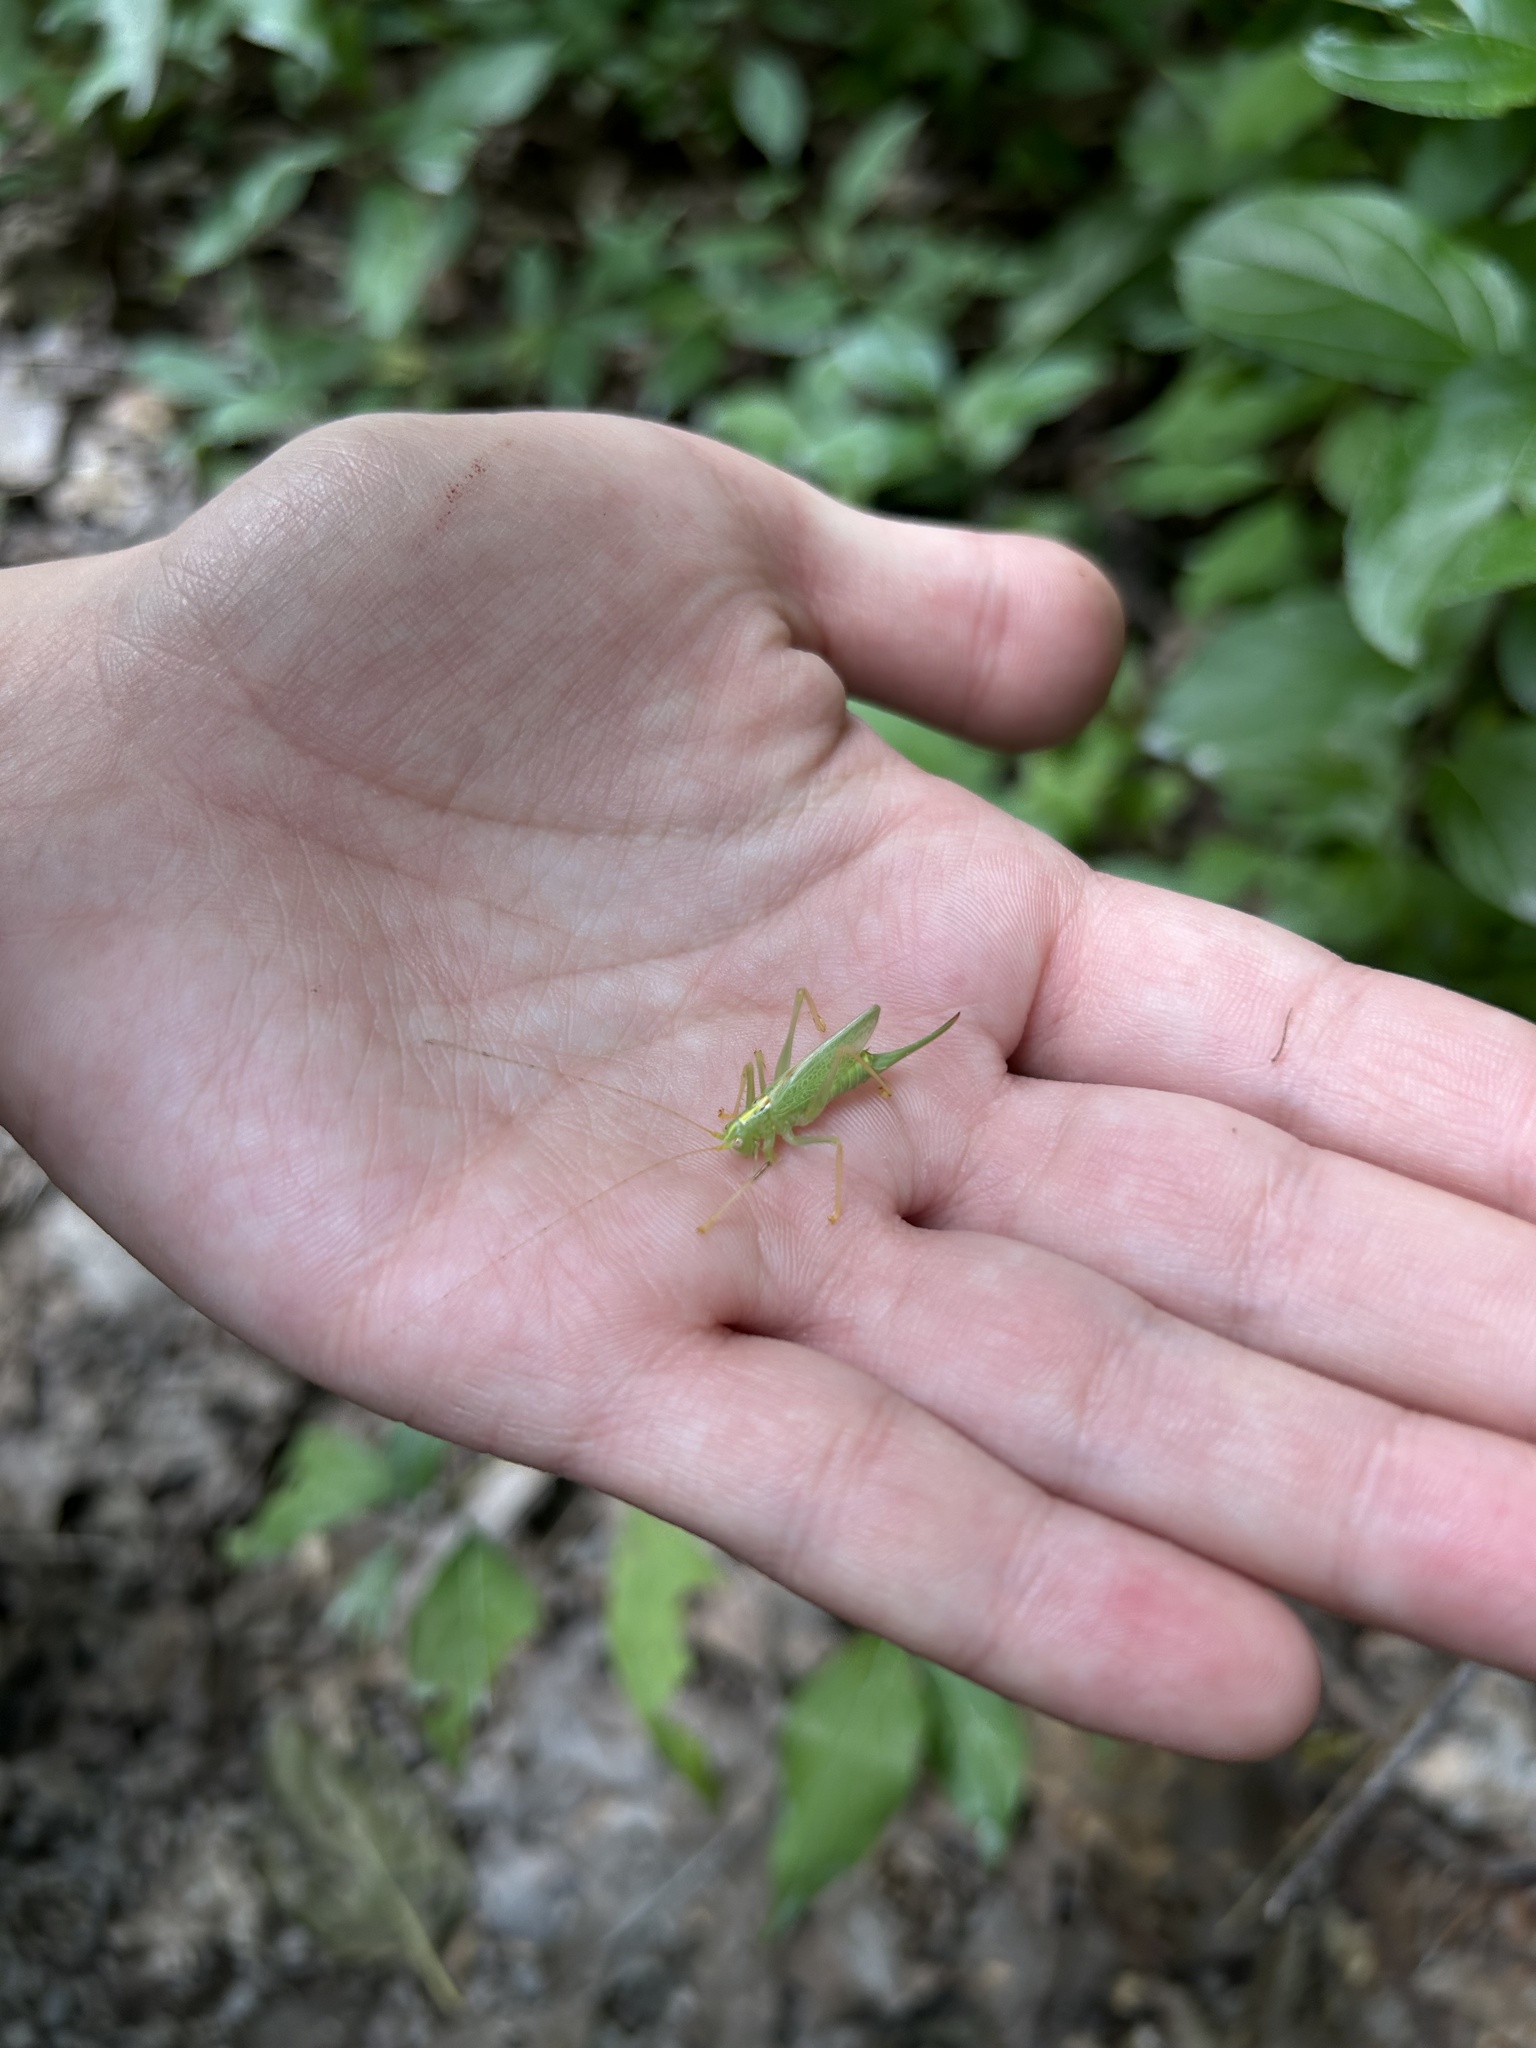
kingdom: Animalia
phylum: Arthropoda
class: Insecta
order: Orthoptera
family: Tettigoniidae
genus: Meconema
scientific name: Meconema thalassinum
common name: Oak bush-cricket
